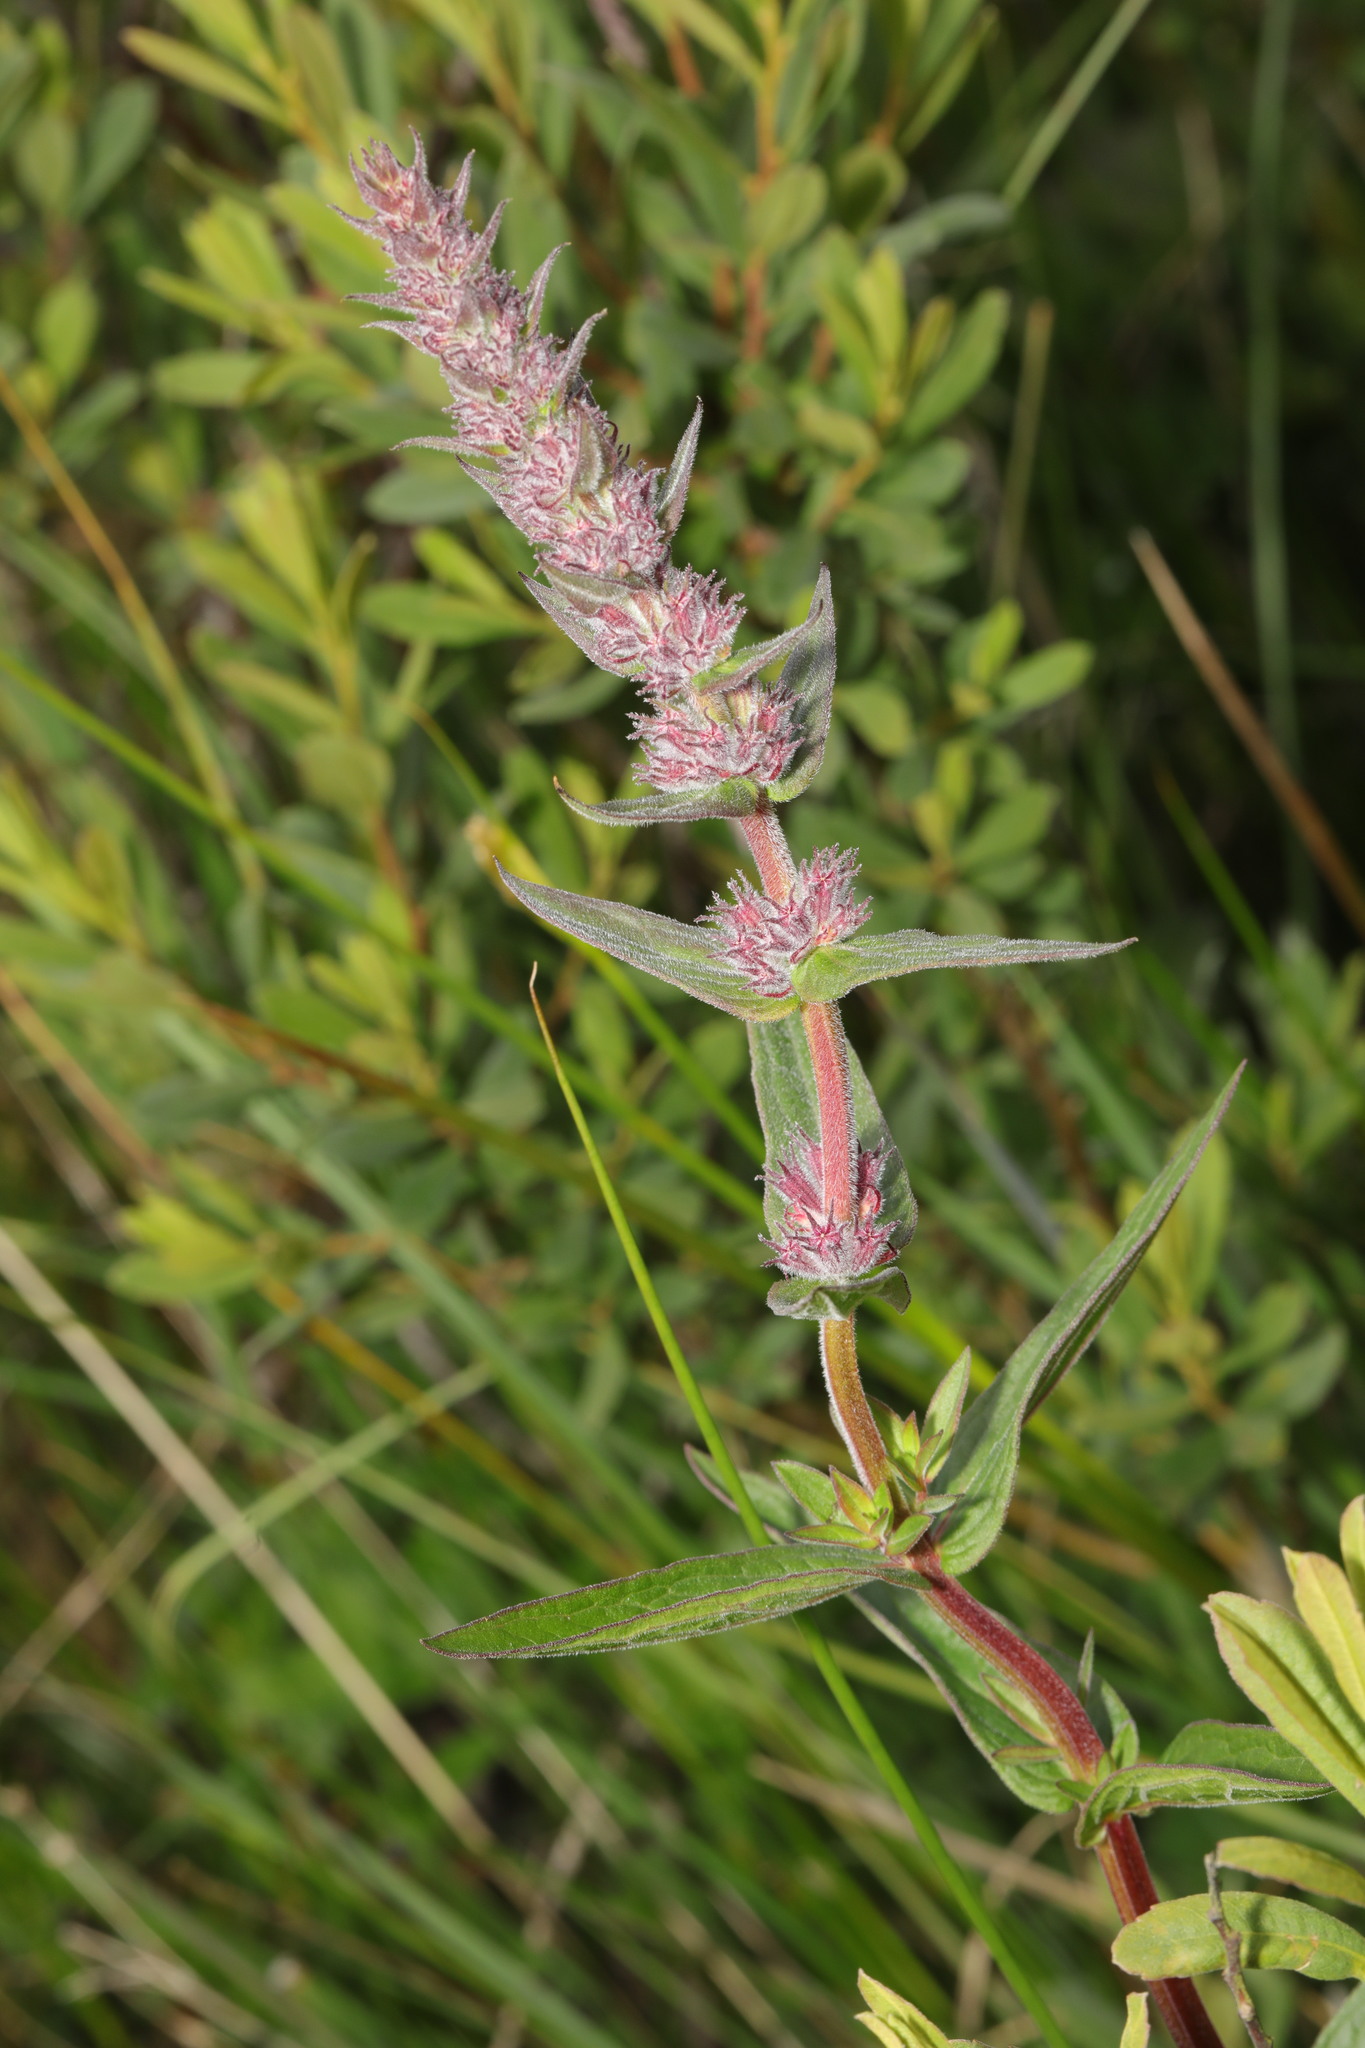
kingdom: Plantae
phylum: Tracheophyta
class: Magnoliopsida
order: Myrtales
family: Lythraceae
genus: Lythrum
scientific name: Lythrum salicaria
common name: Purple loosestrife
